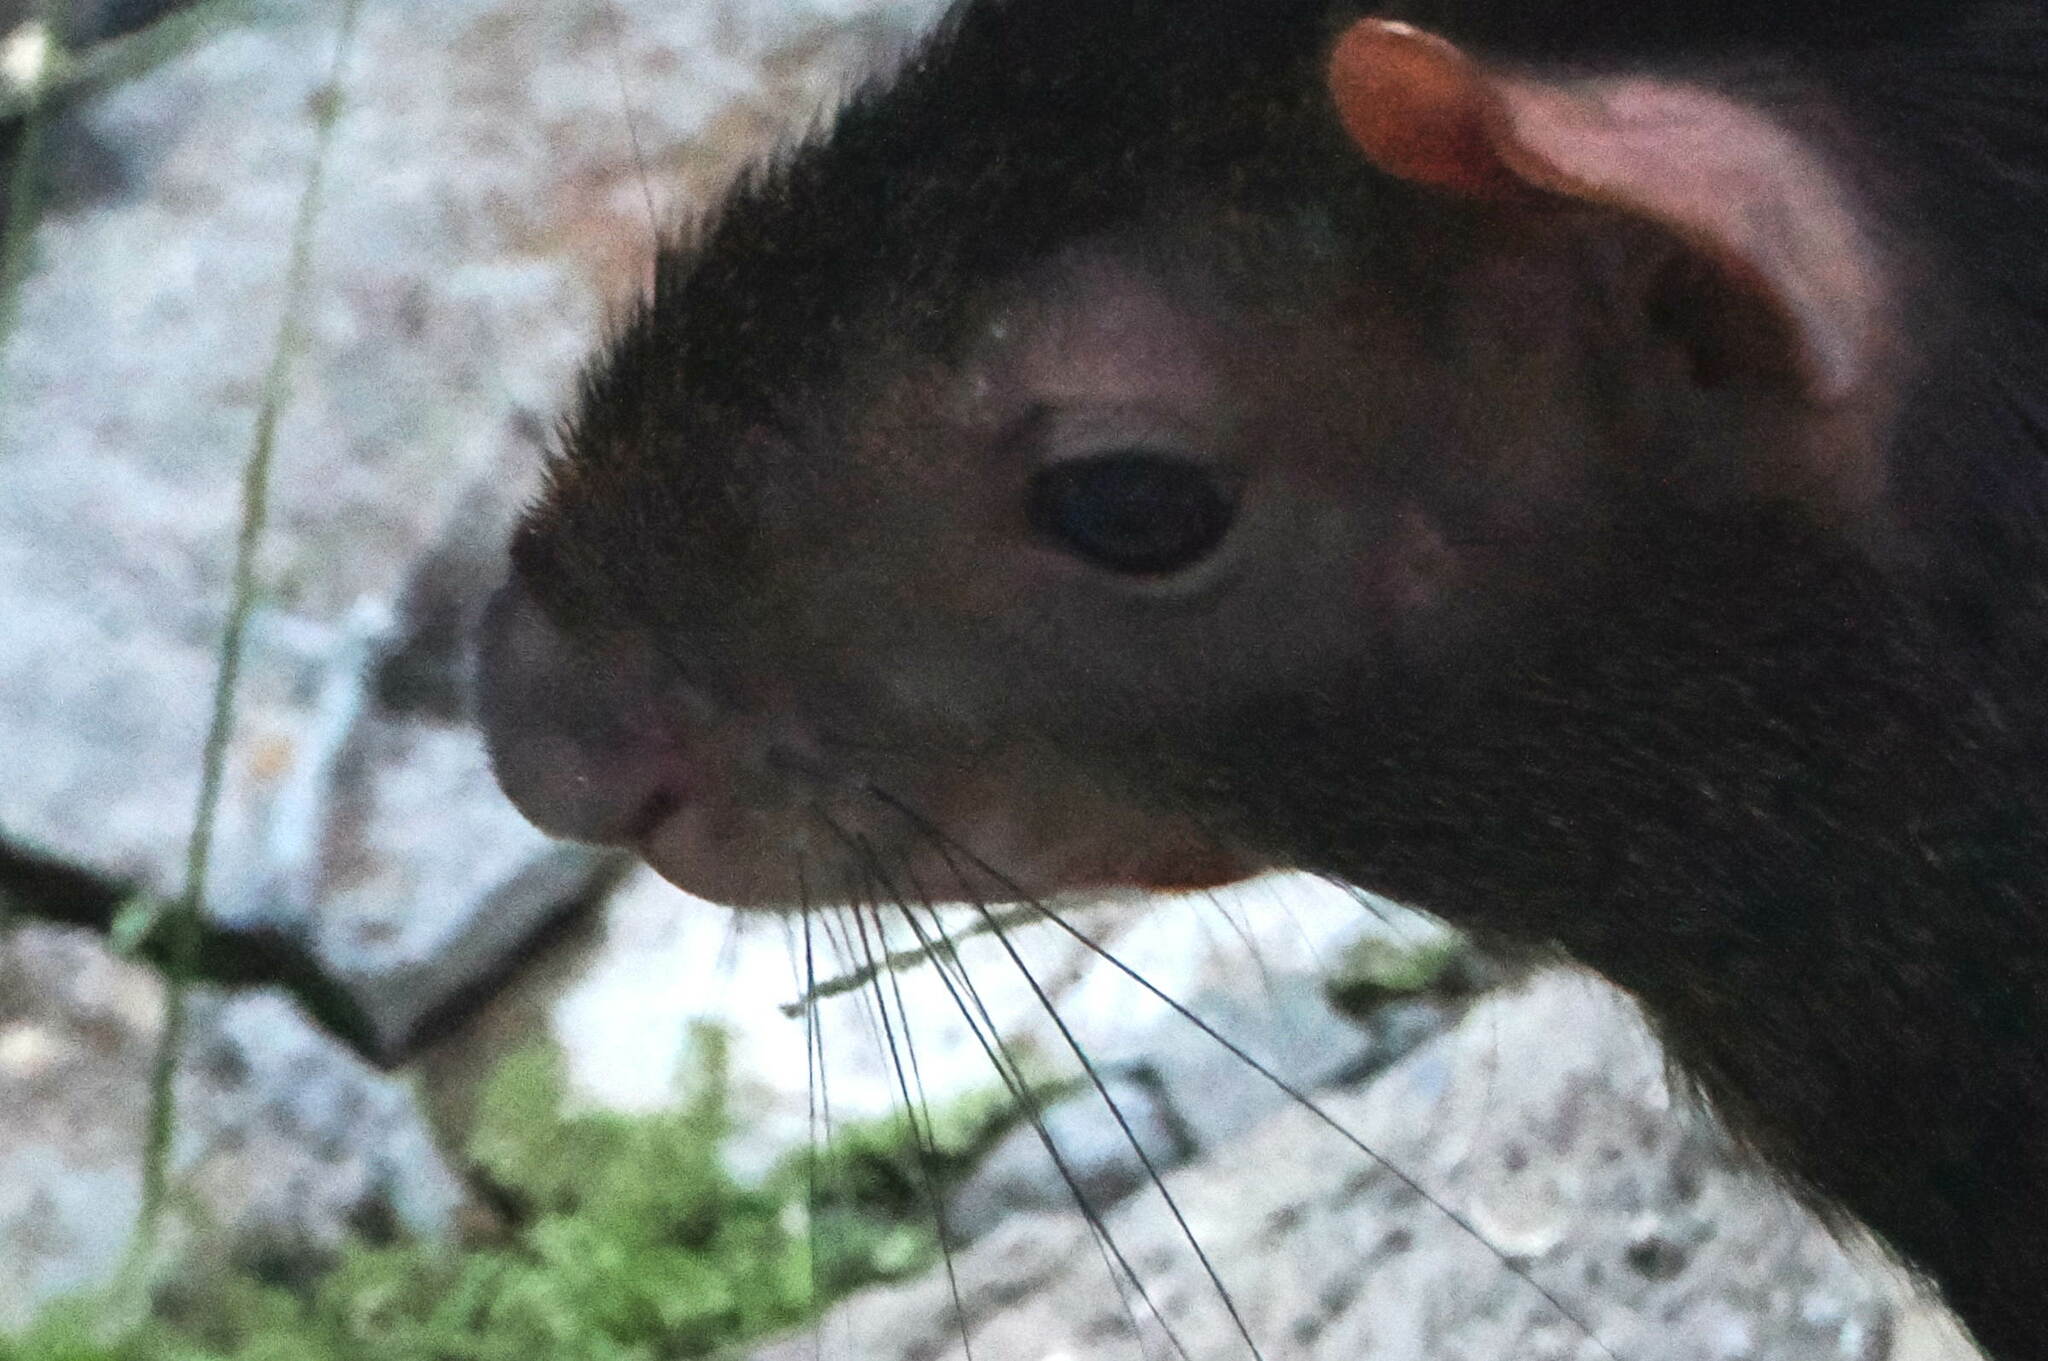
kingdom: Animalia
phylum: Chordata
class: Mammalia
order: Rodentia
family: Dasyproctidae
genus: Dasyprocta
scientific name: Dasyprocta leporina
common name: Red-rumped agouti
